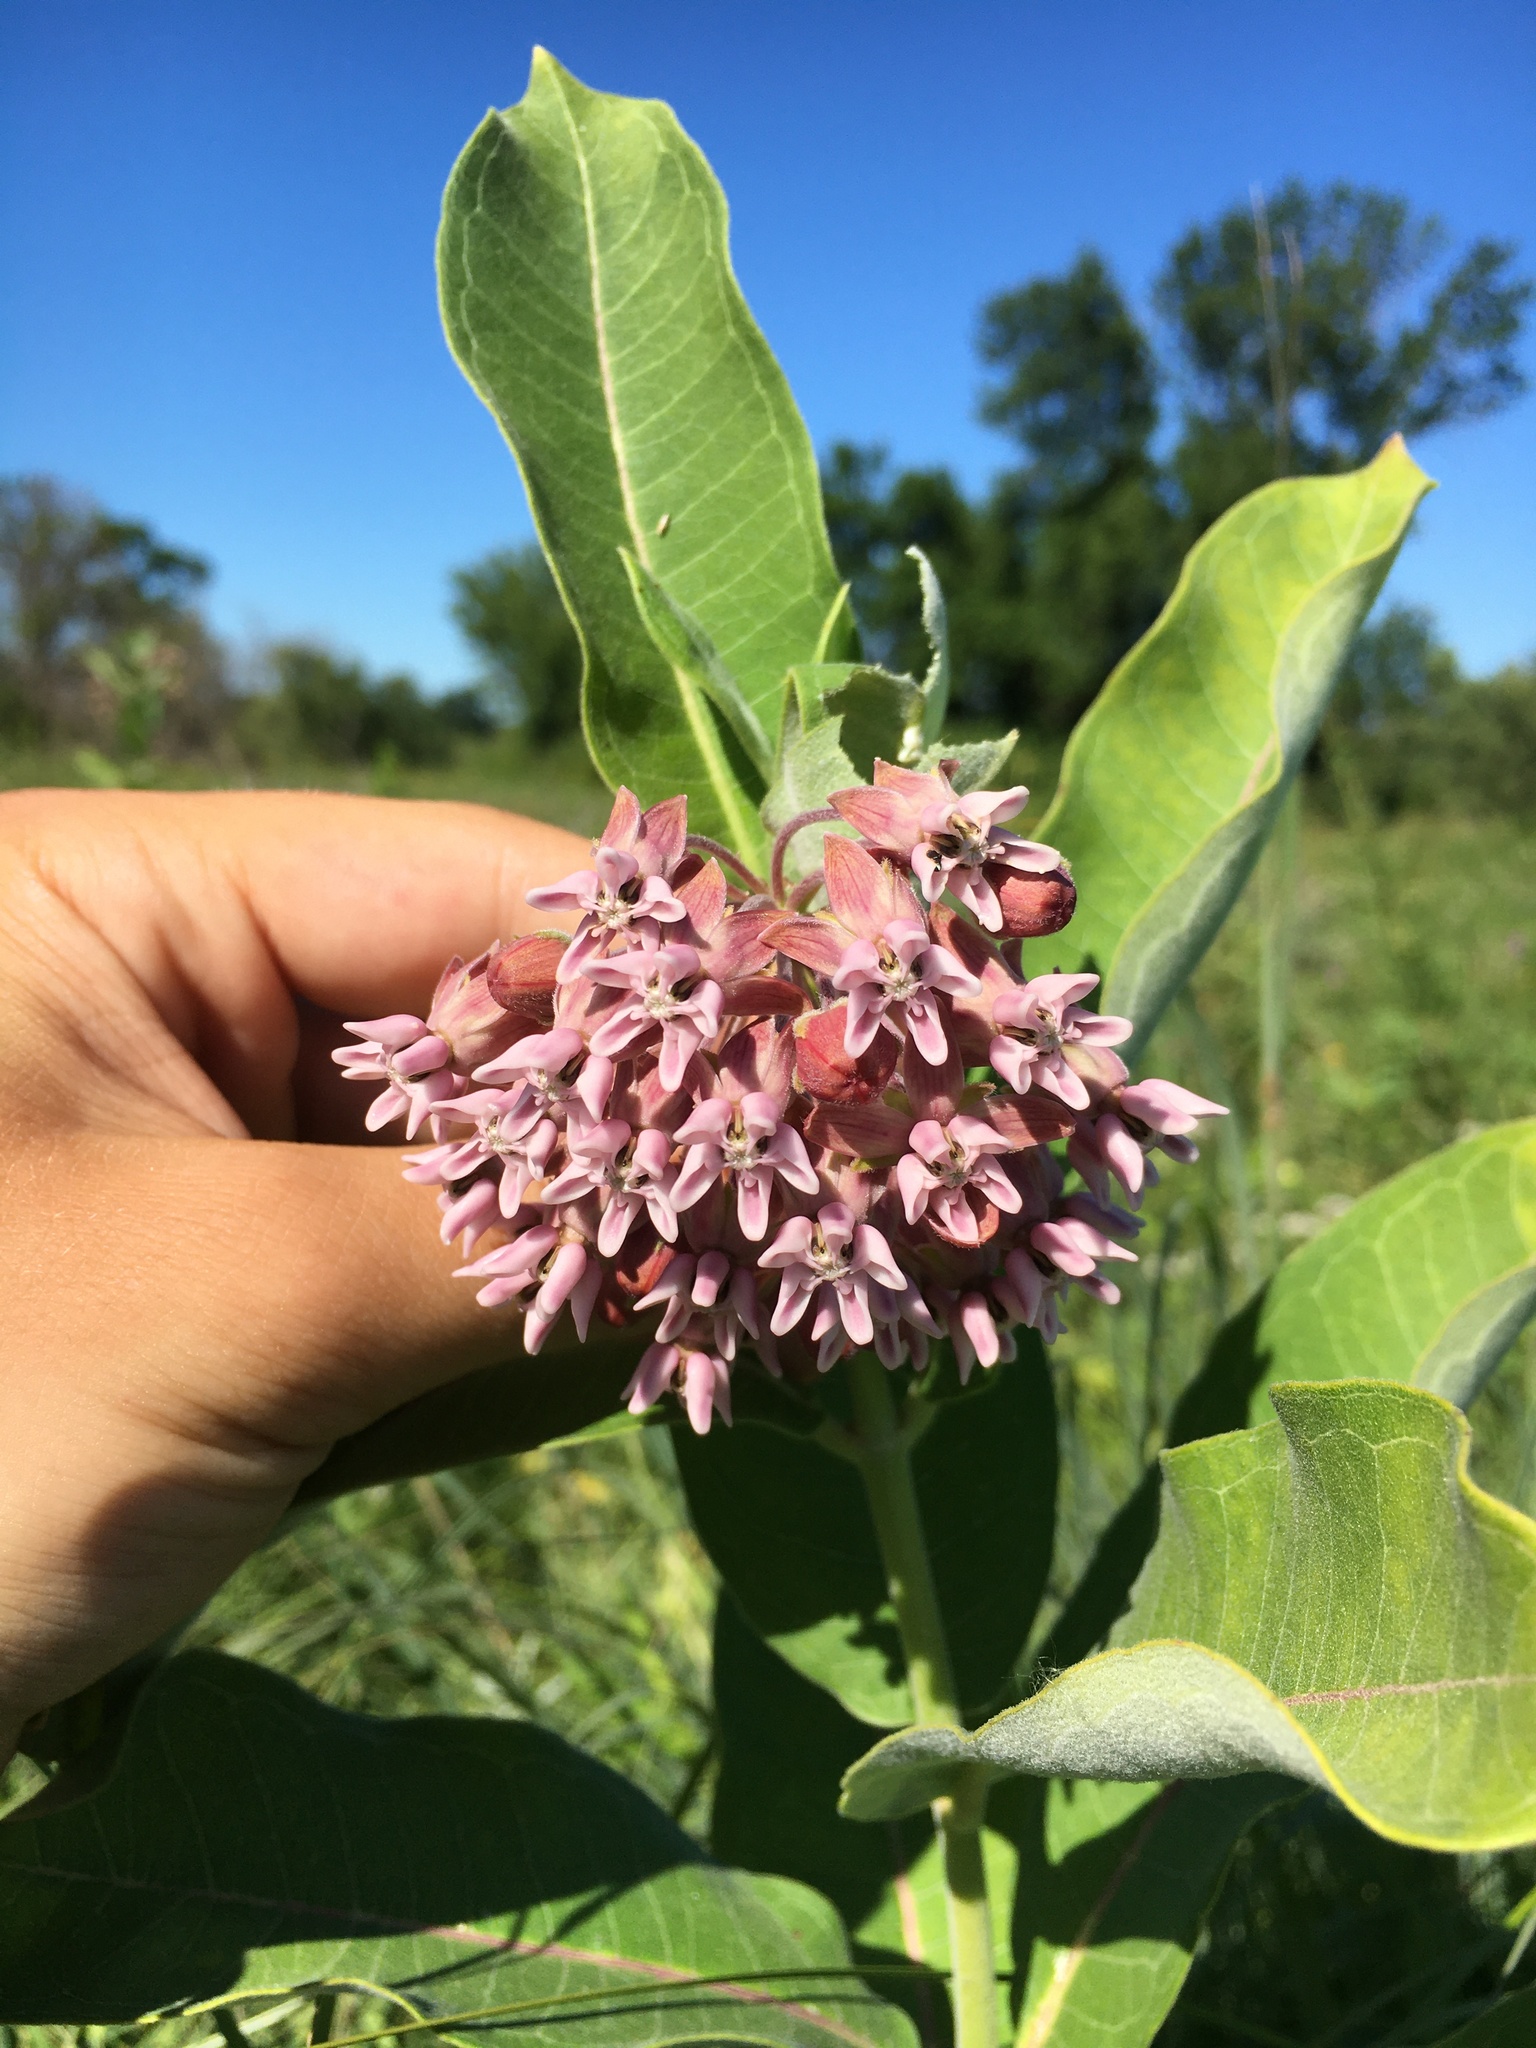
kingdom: Plantae
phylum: Tracheophyta
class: Magnoliopsida
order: Gentianales
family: Apocynaceae
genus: Asclepias
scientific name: Asclepias syriaca
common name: Common milkweed
